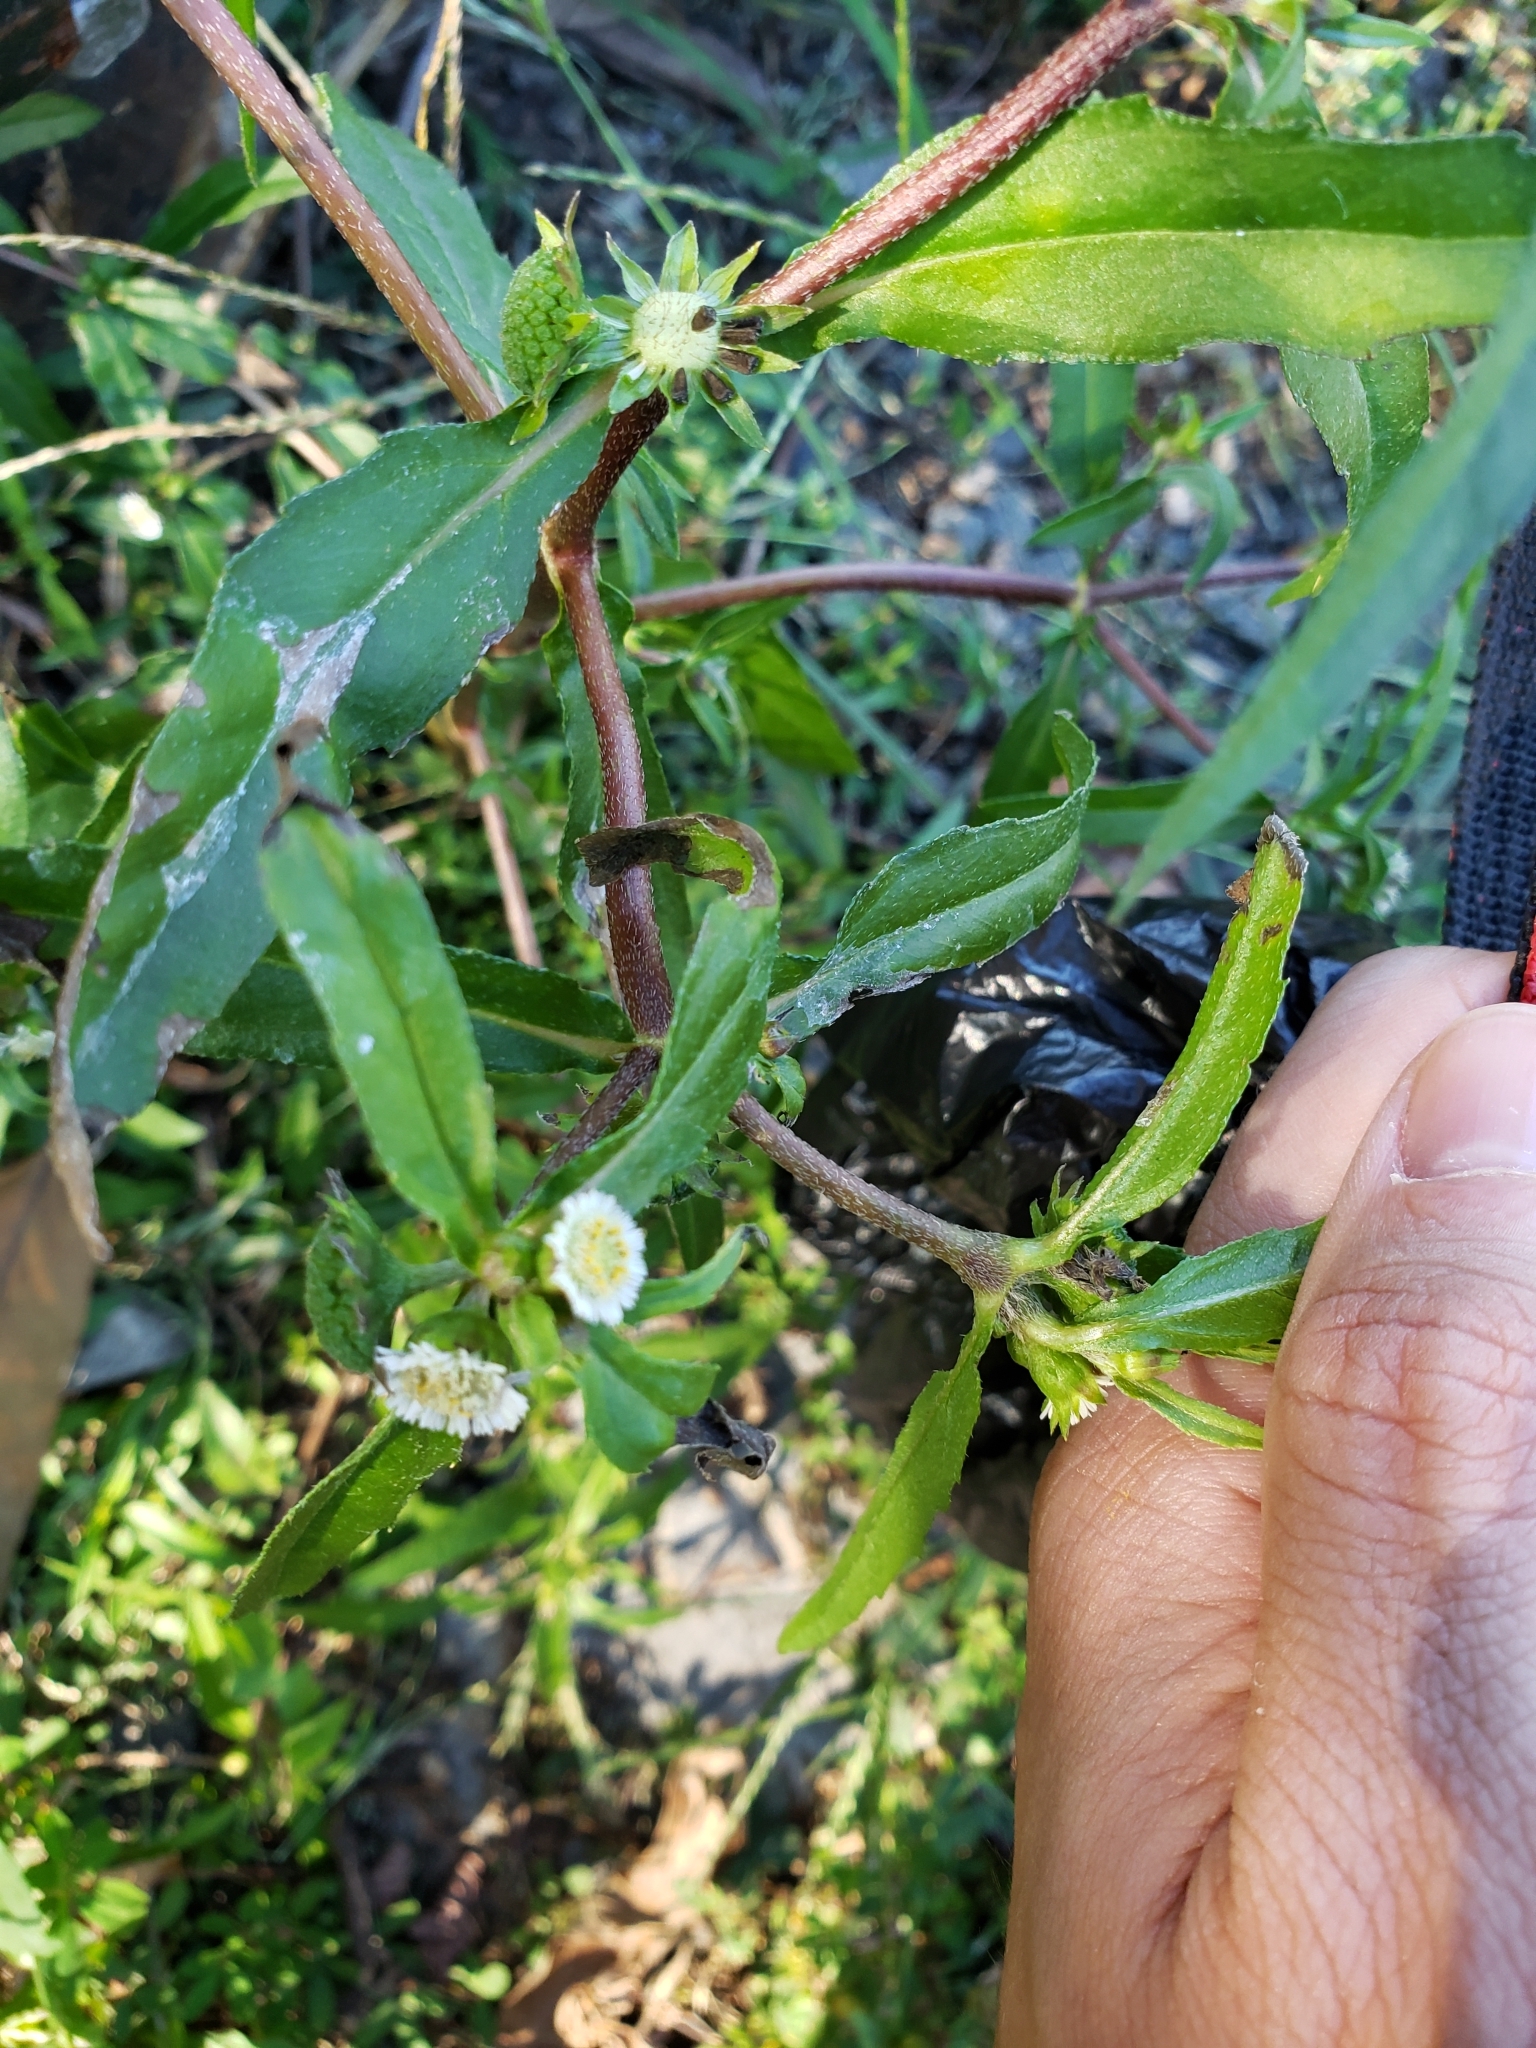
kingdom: Plantae
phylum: Tracheophyta
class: Magnoliopsida
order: Asterales
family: Asteraceae
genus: Eclipta
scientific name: Eclipta prostrata
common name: False daisy
